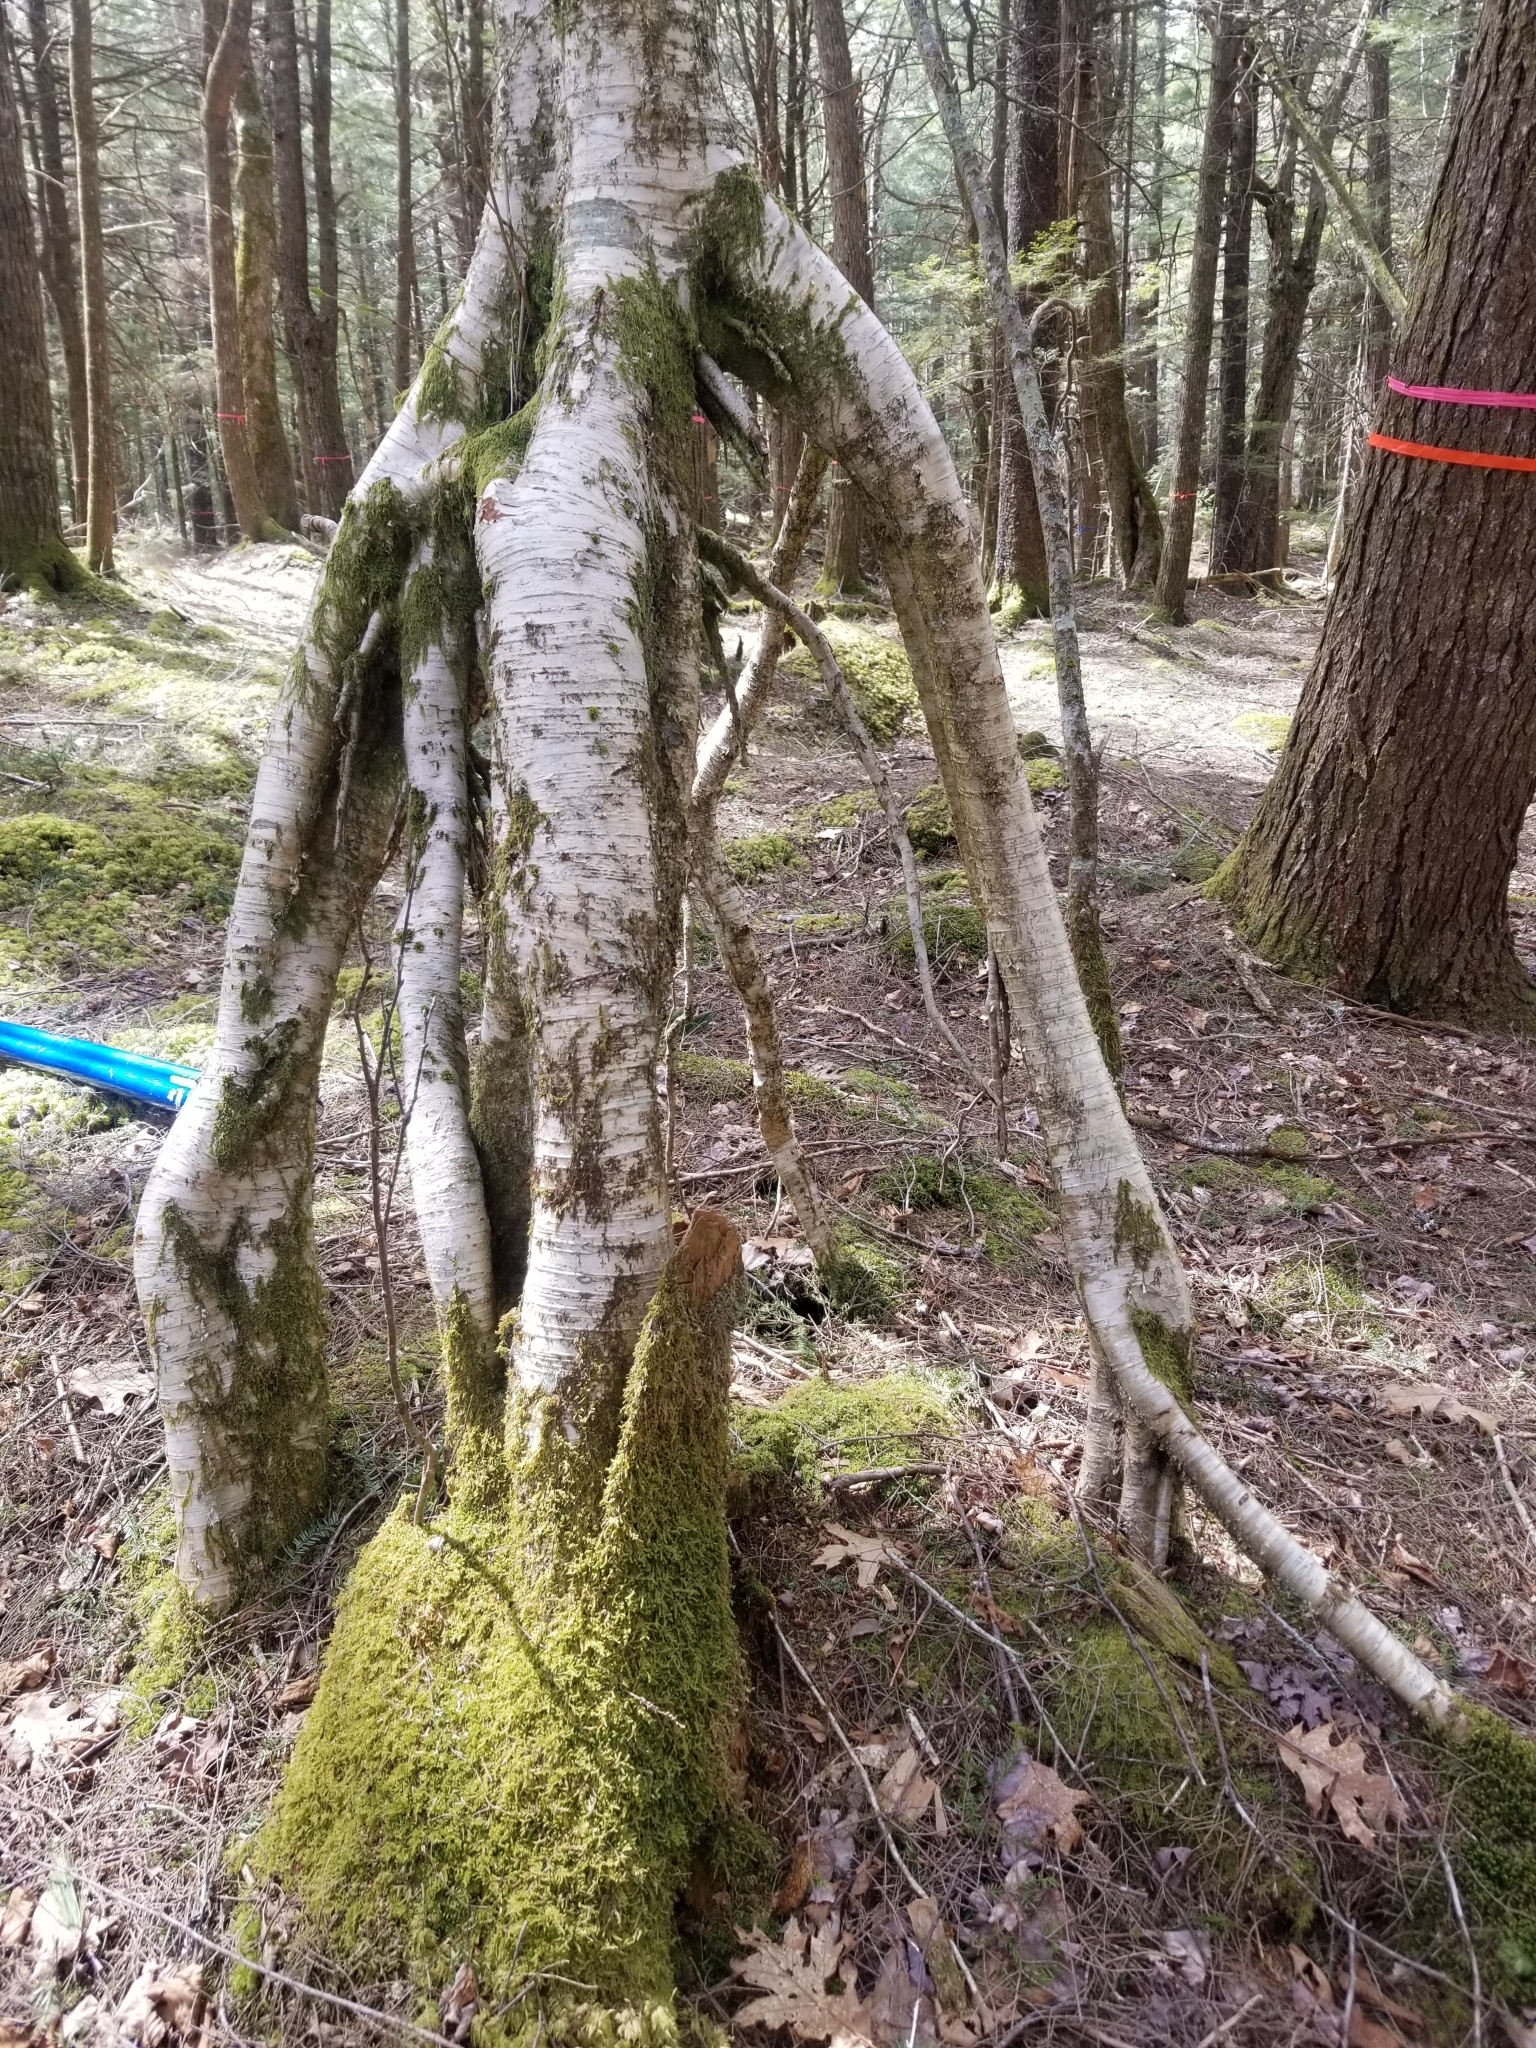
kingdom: Plantae
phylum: Tracheophyta
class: Magnoliopsida
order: Fagales
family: Betulaceae
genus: Betula
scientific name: Betula alleghaniensis
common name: Yellow birch
